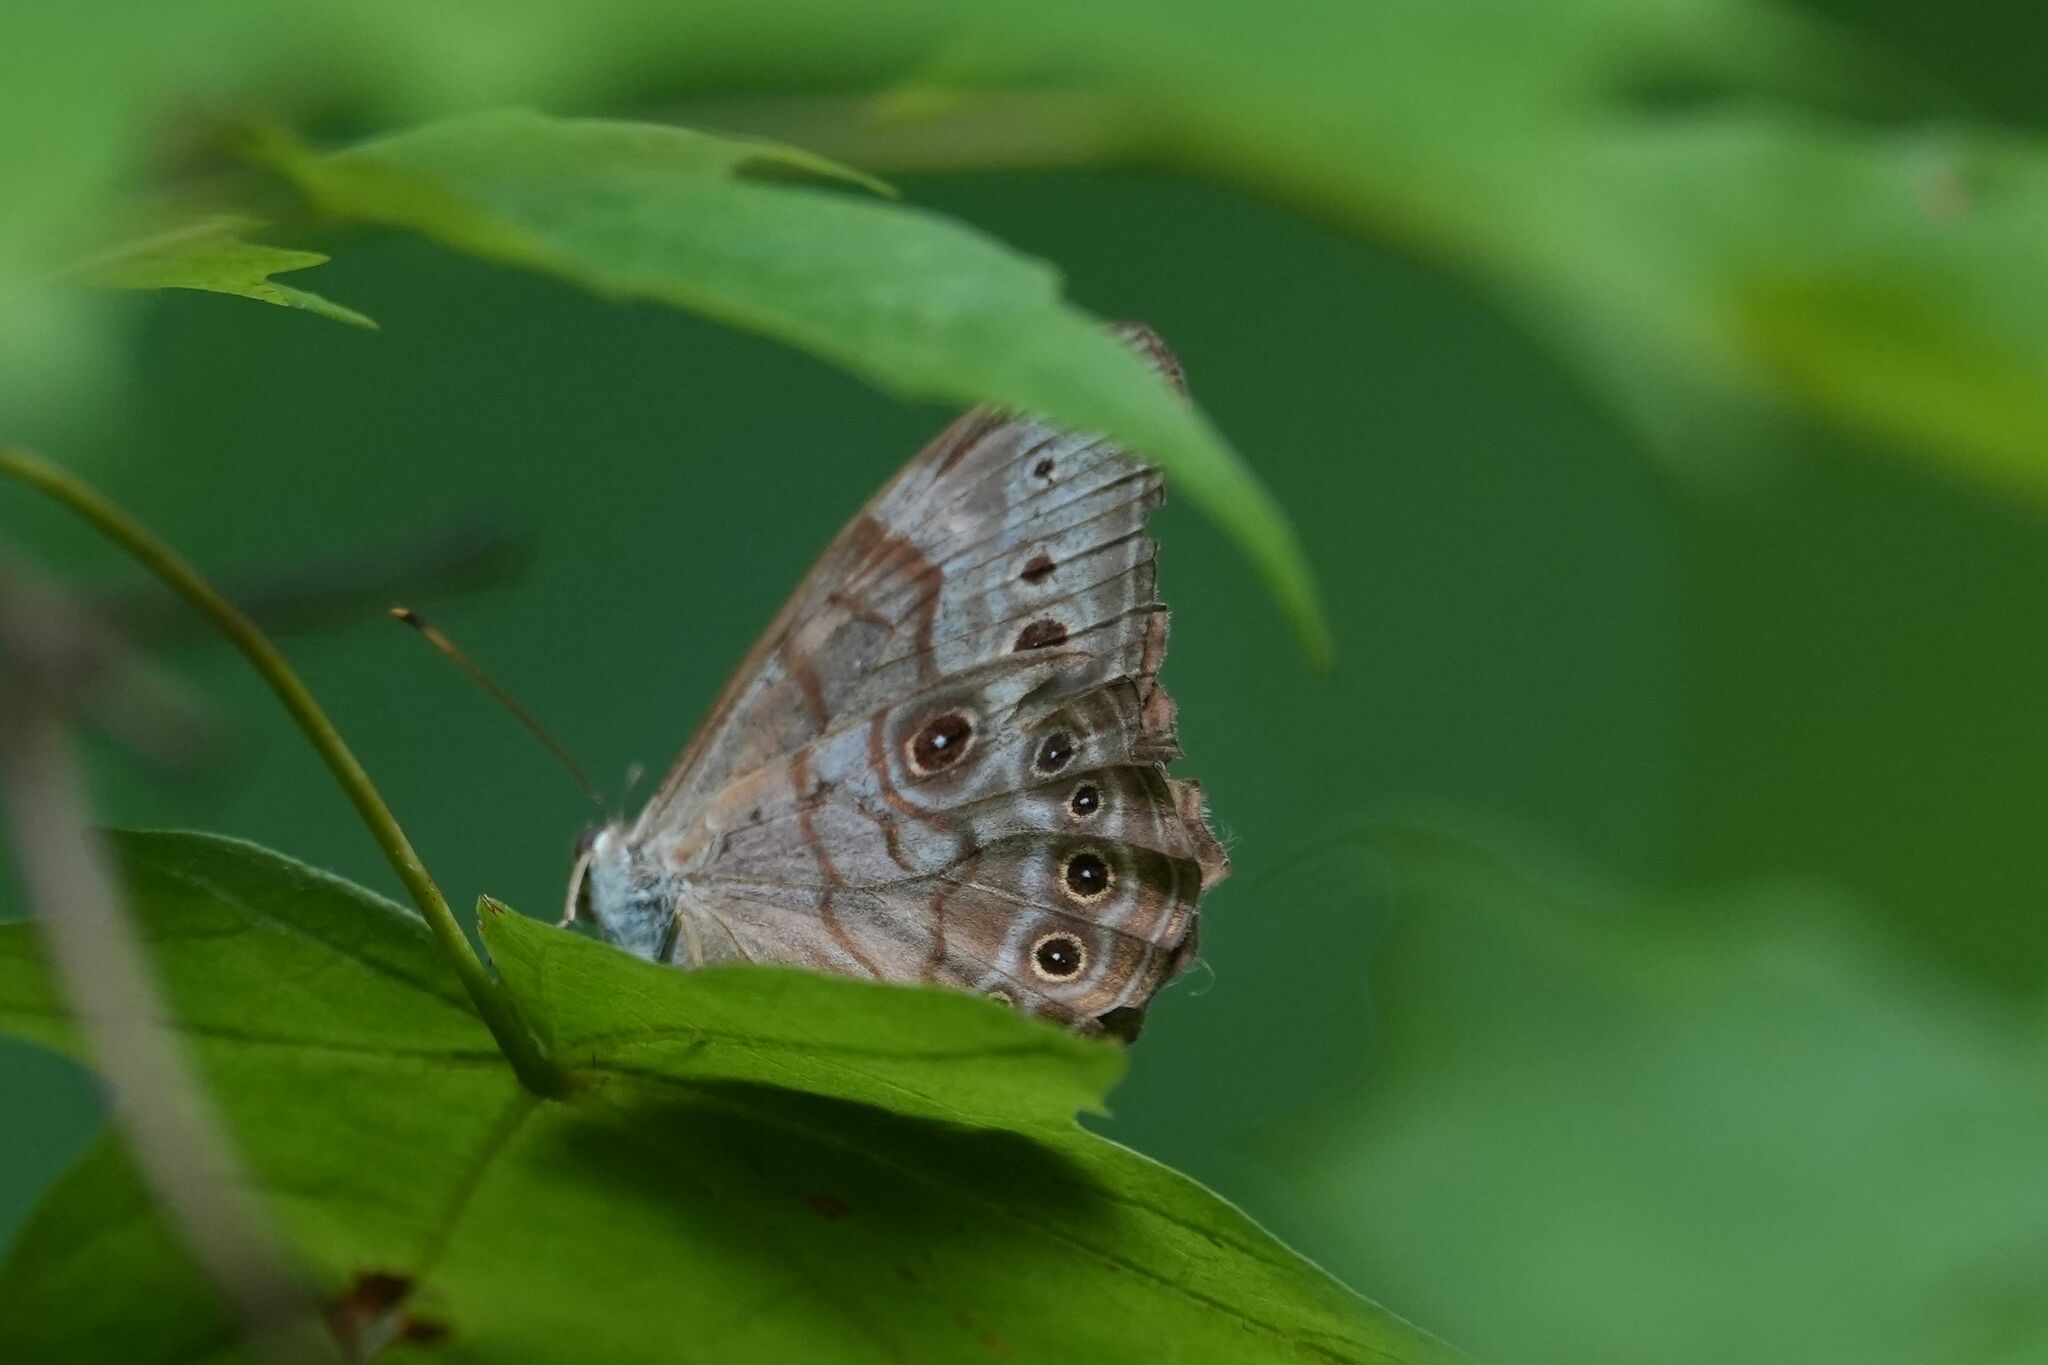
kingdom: Animalia
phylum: Arthropoda
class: Insecta
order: Lepidoptera
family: Nymphalidae
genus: Lethe
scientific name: Lethe anthedon
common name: Northern pearly-eye
